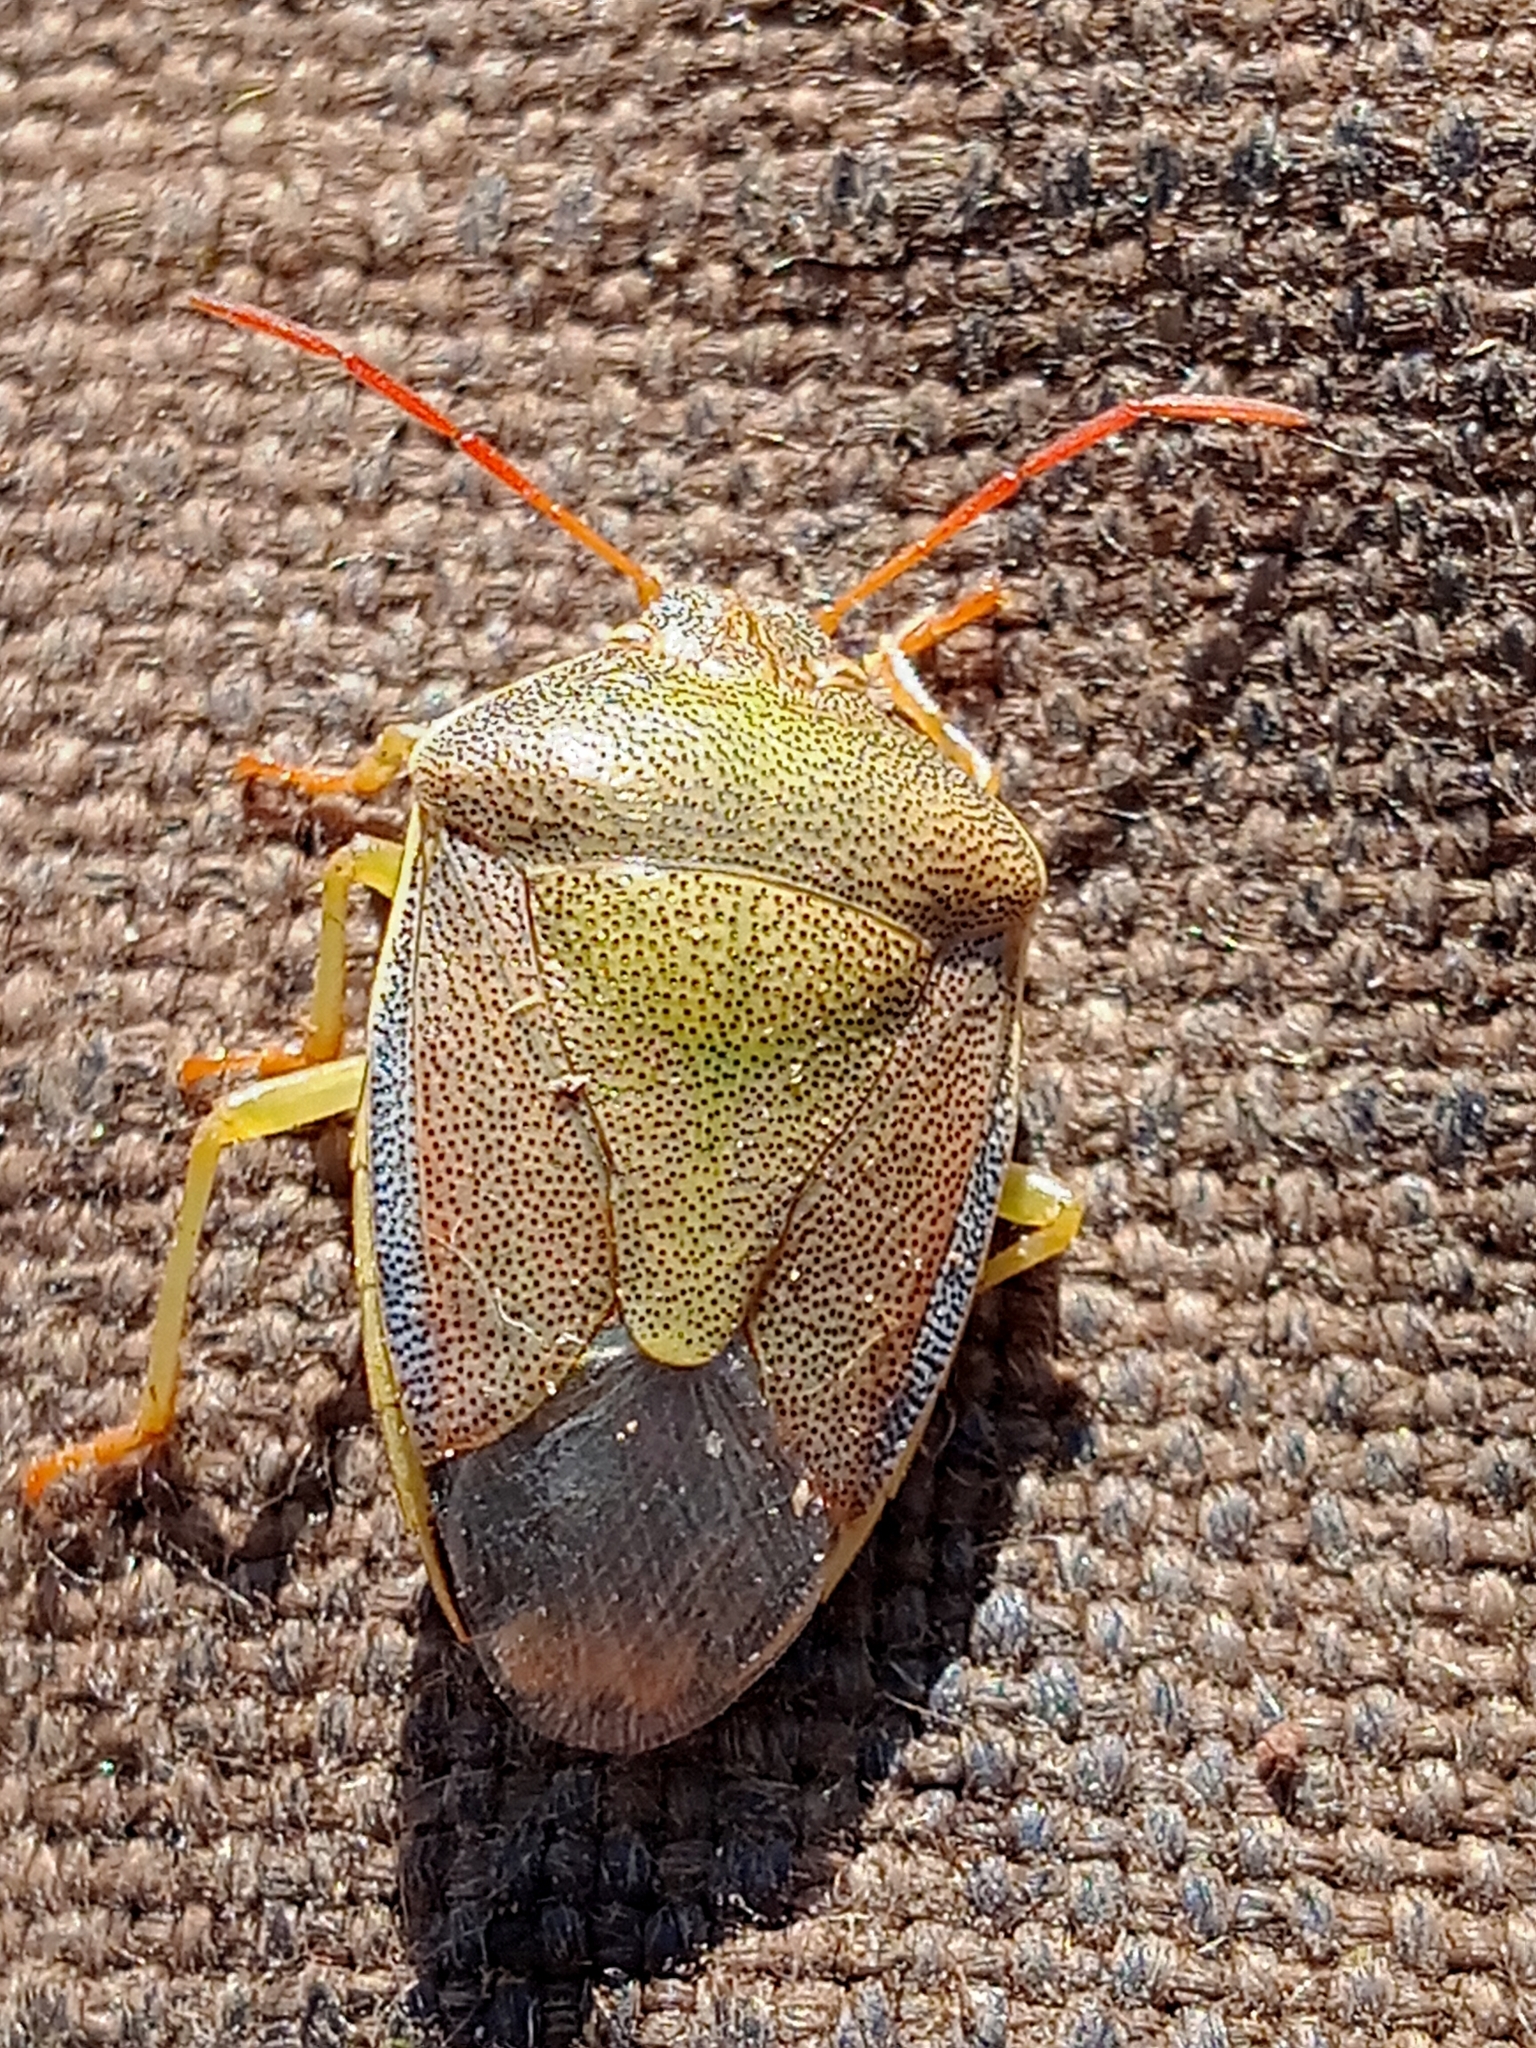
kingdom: Animalia
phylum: Arthropoda
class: Insecta
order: Hemiptera
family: Pentatomidae
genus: Piezodorus
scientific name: Piezodorus lituratus
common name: Stink bug
